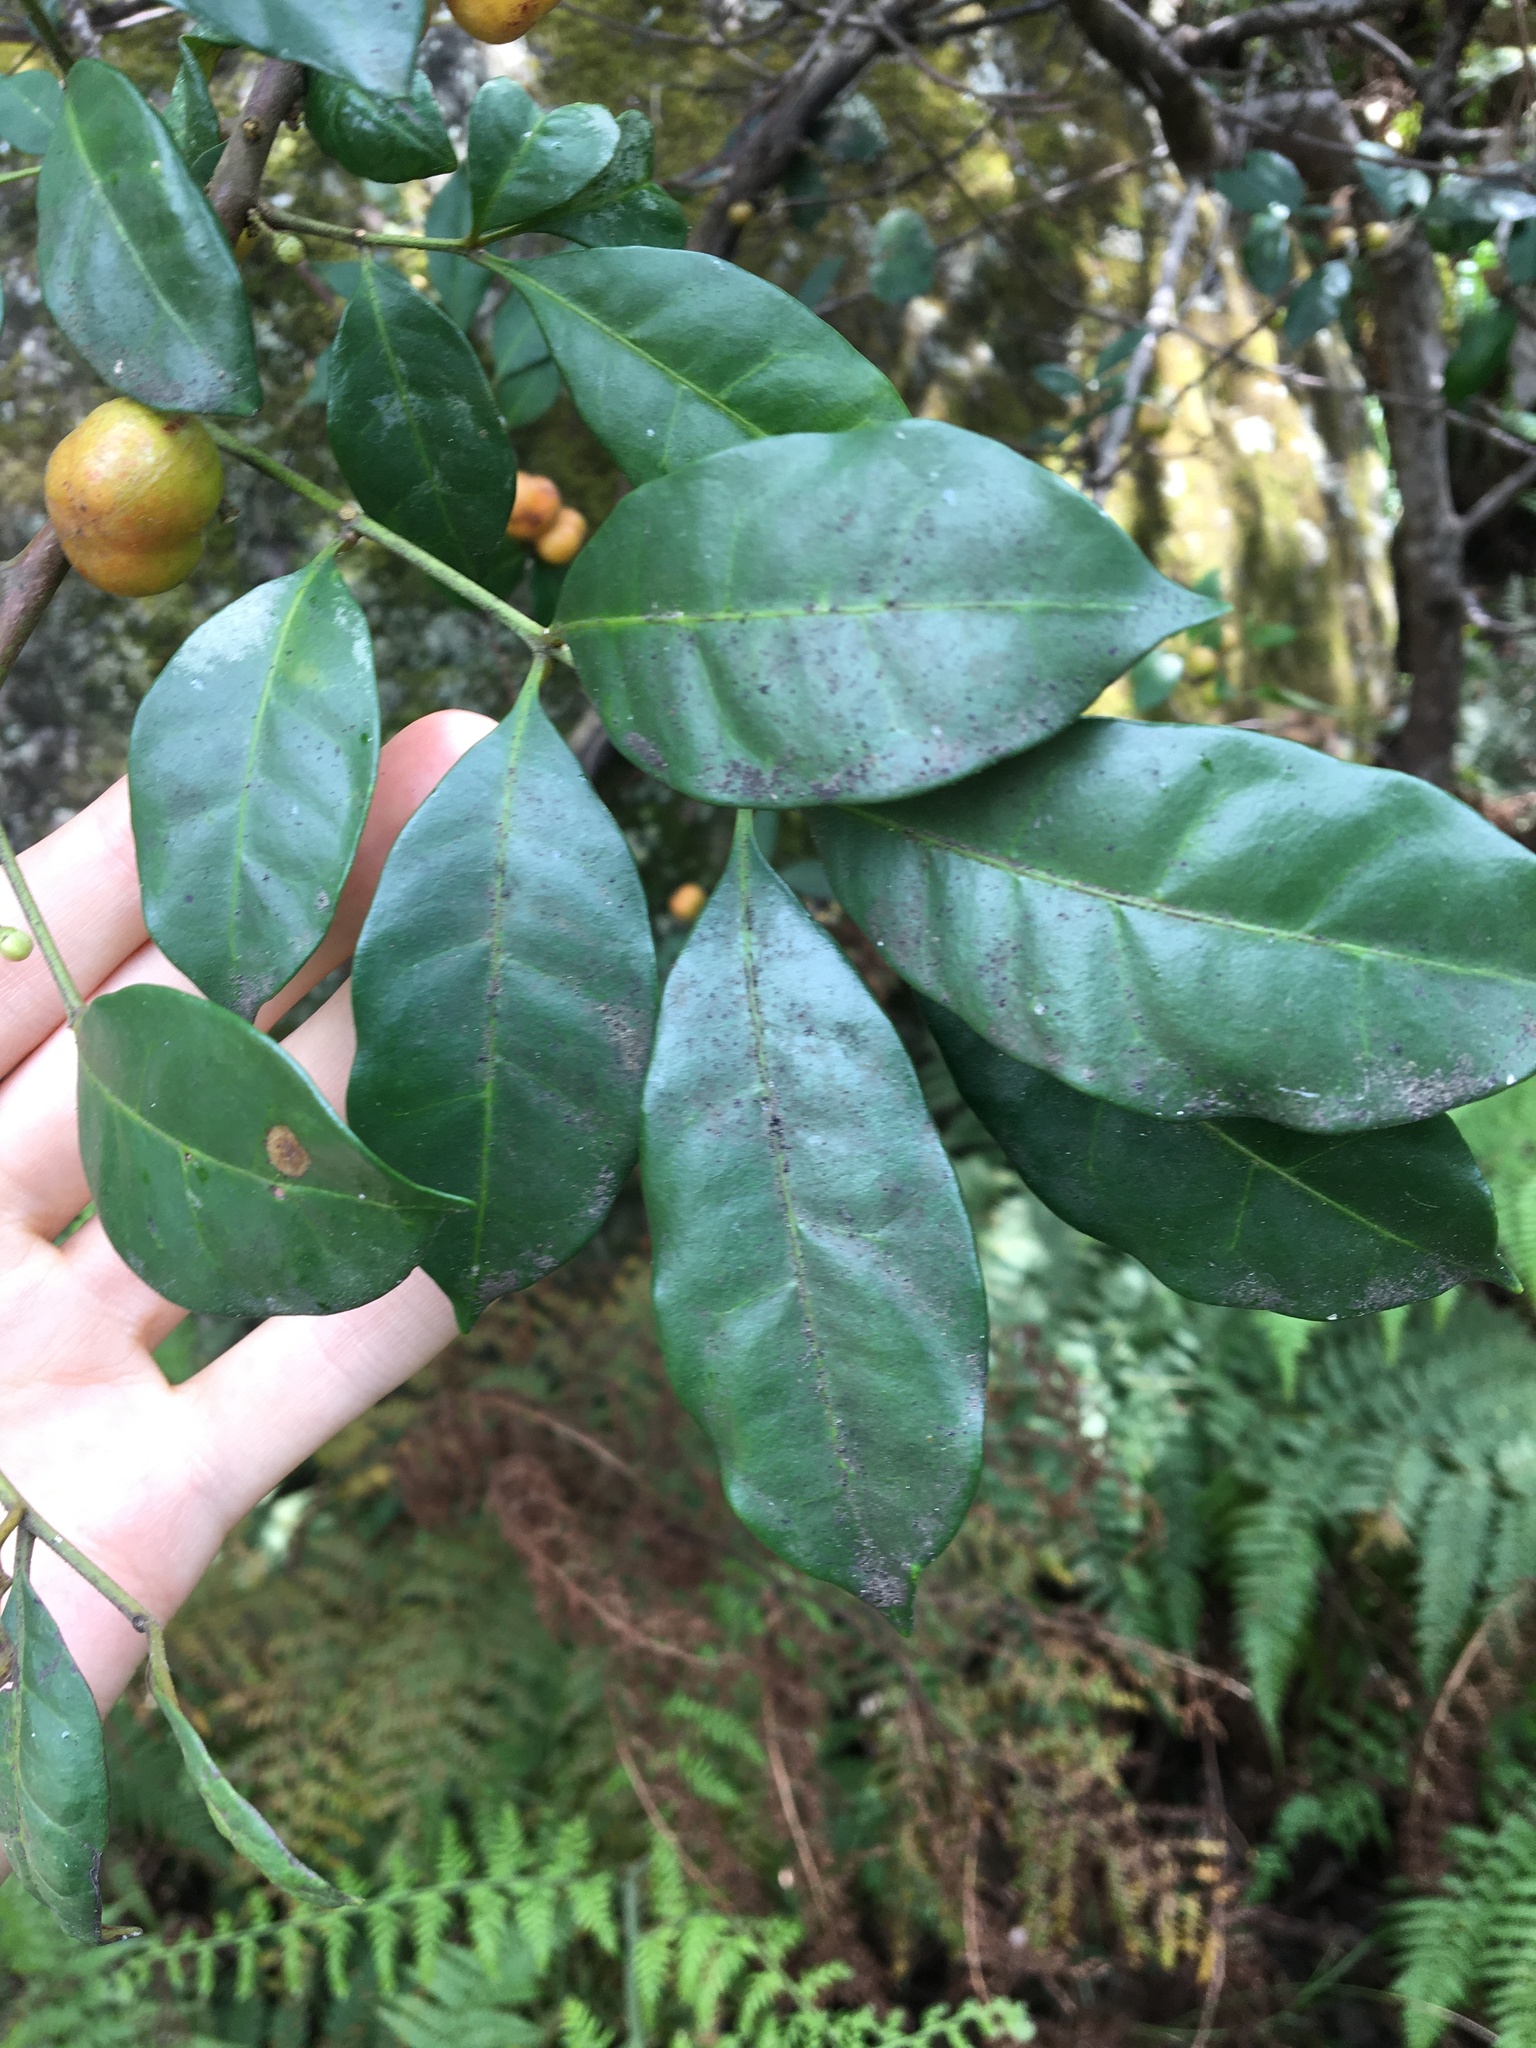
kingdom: Plantae
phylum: Tracheophyta
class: Magnoliopsida
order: Sapindales
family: Meliaceae
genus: Synoum
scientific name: Synoum glandulosum
